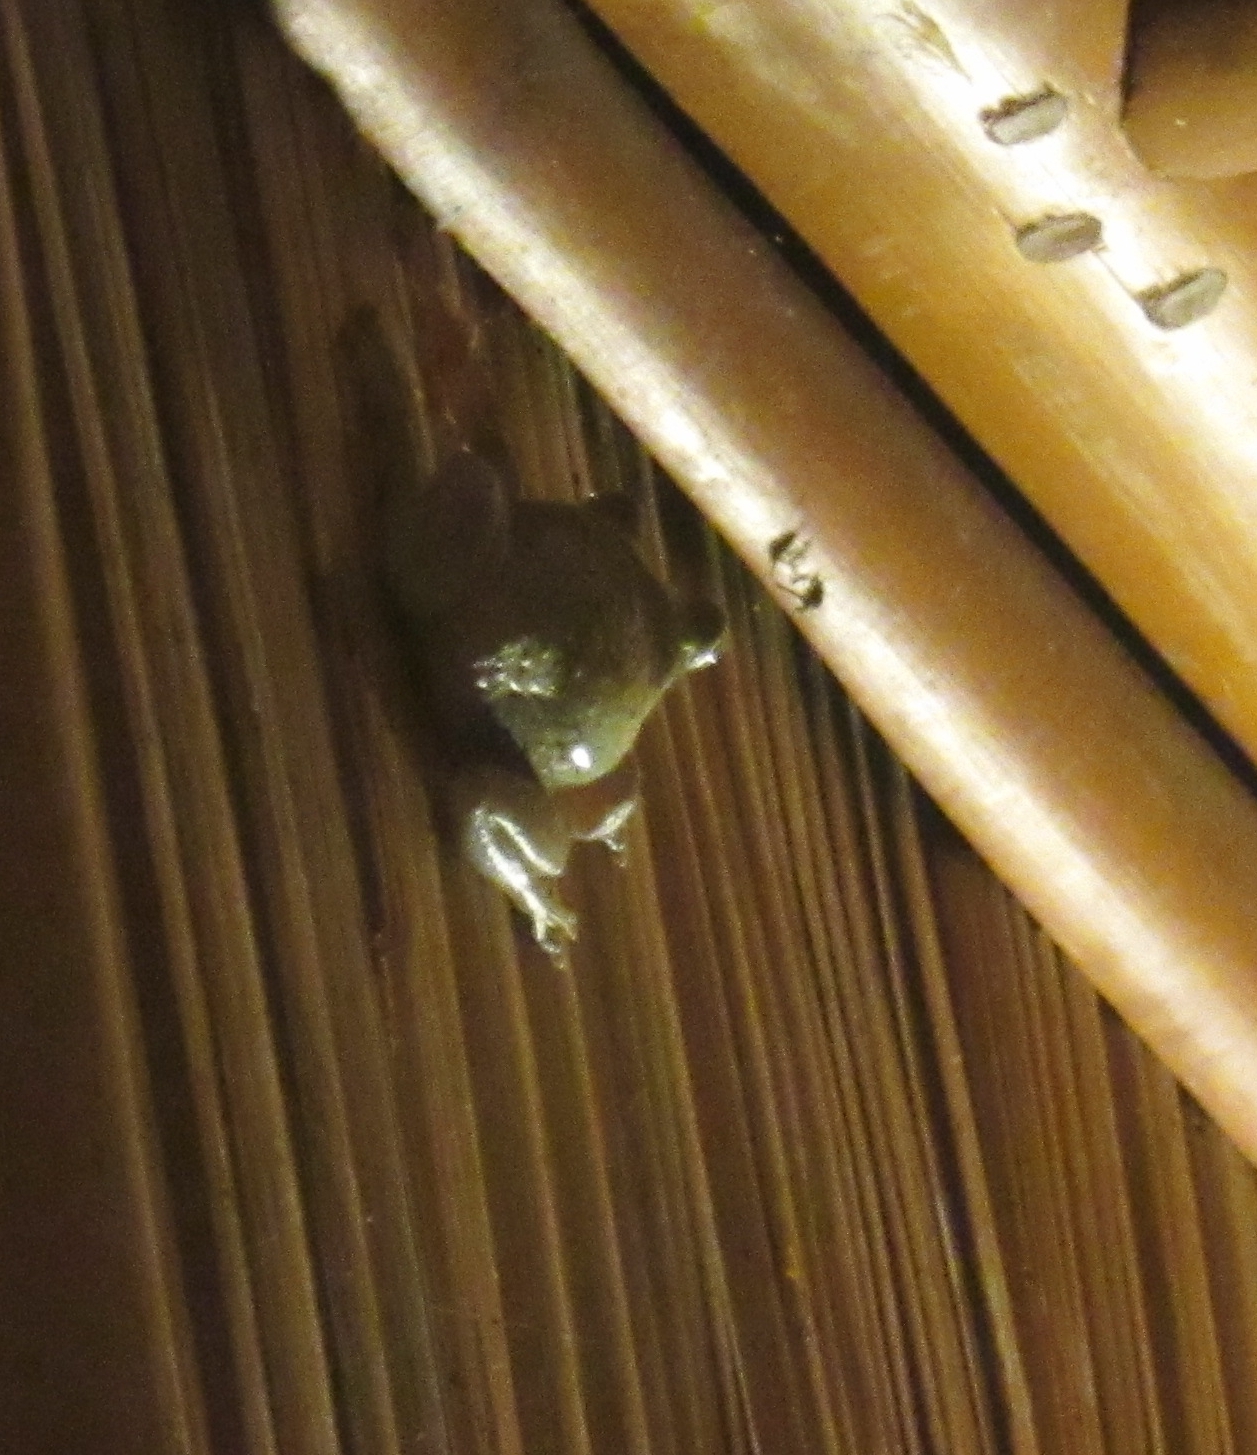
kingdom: Animalia
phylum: Chordata
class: Amphibia
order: Anura
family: Hylidae
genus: Osteopilus
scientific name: Osteopilus septentrionalis
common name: Cuban treefrog
